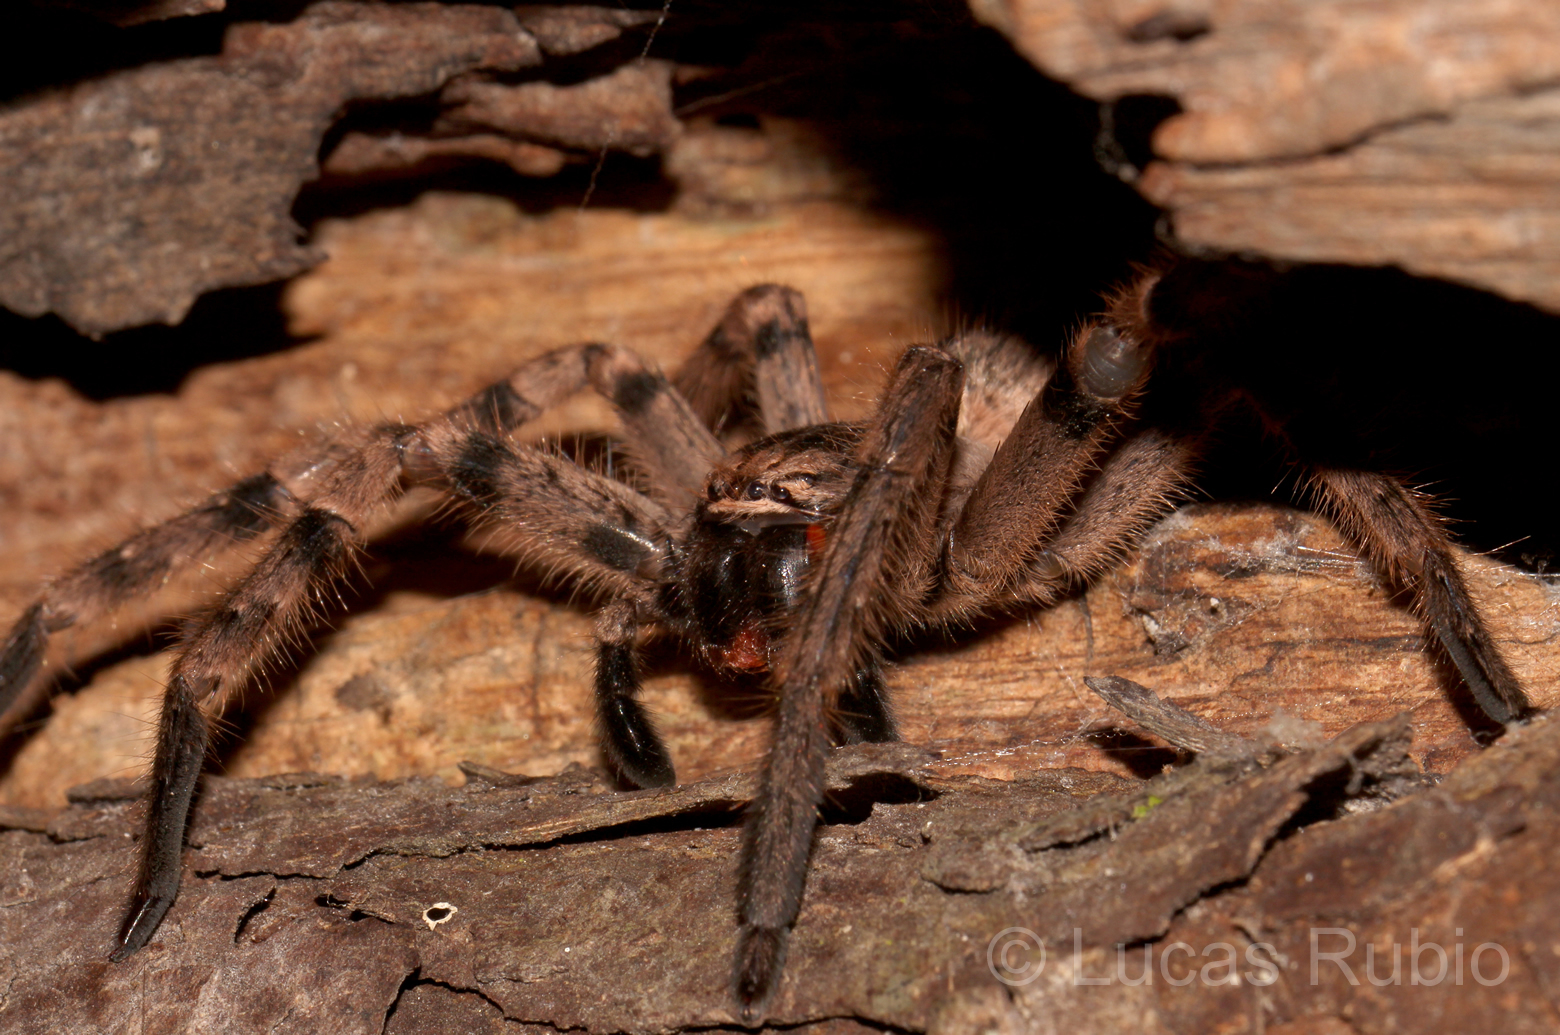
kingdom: Animalia
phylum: Arthropoda
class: Arachnida
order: Araneae
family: Sparassidae
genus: Polybetes
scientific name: Polybetes pythagoricus
